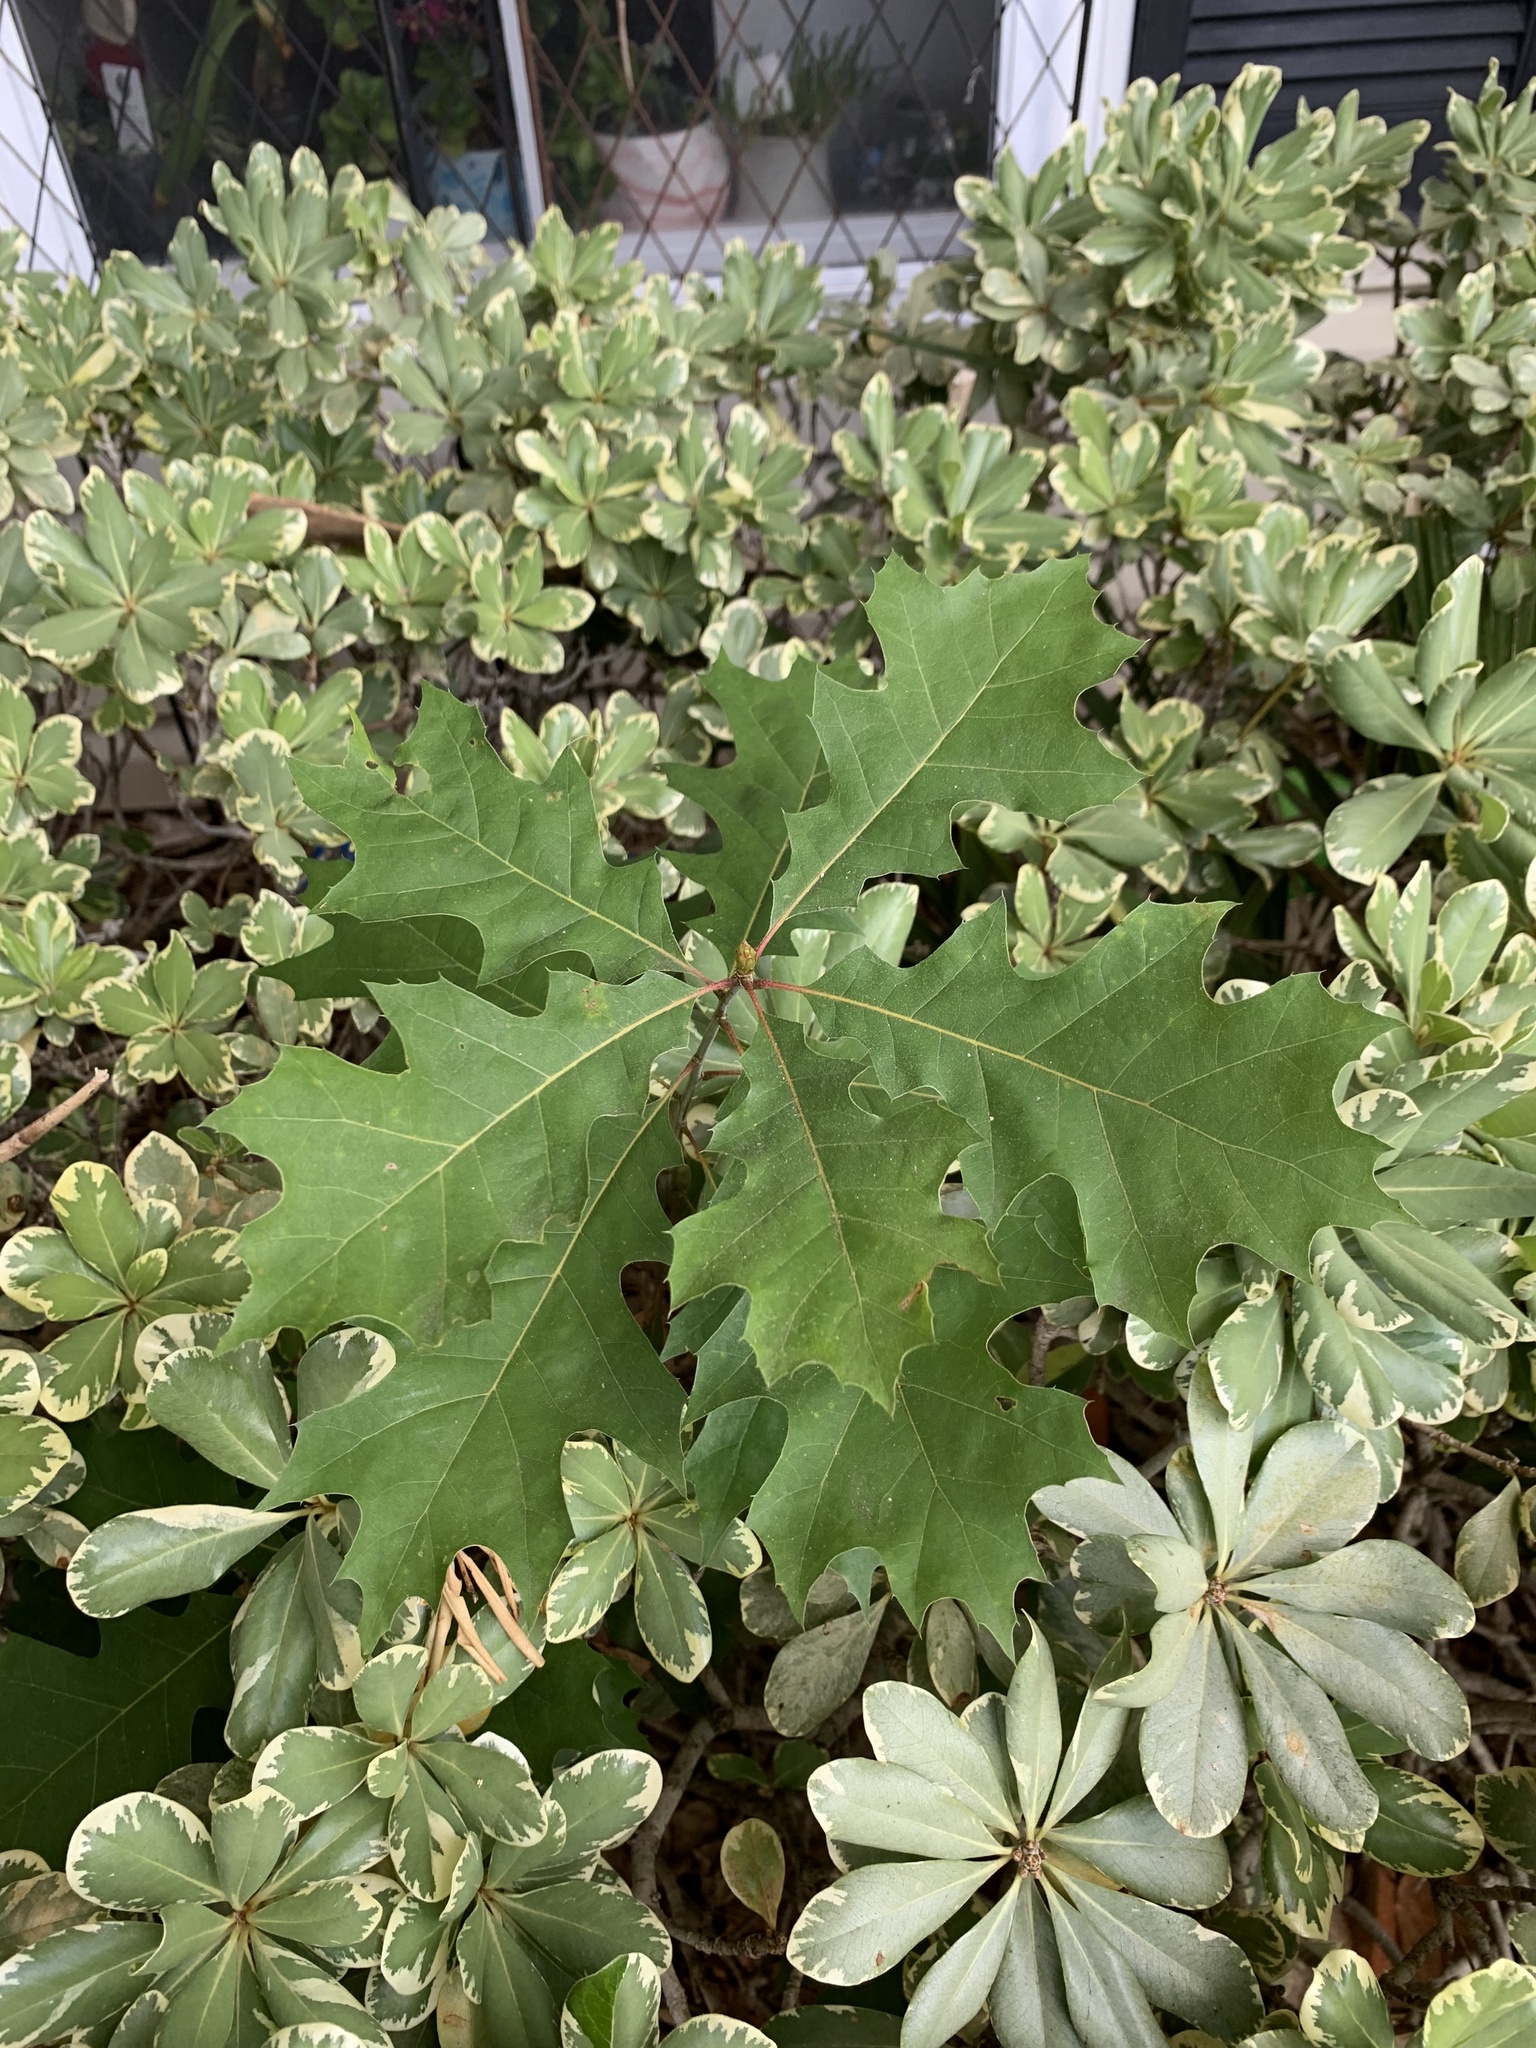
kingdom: Plantae
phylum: Tracheophyta
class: Magnoliopsida
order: Fagales
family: Fagaceae
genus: Quercus
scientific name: Quercus shumardii
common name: Shumard oak
